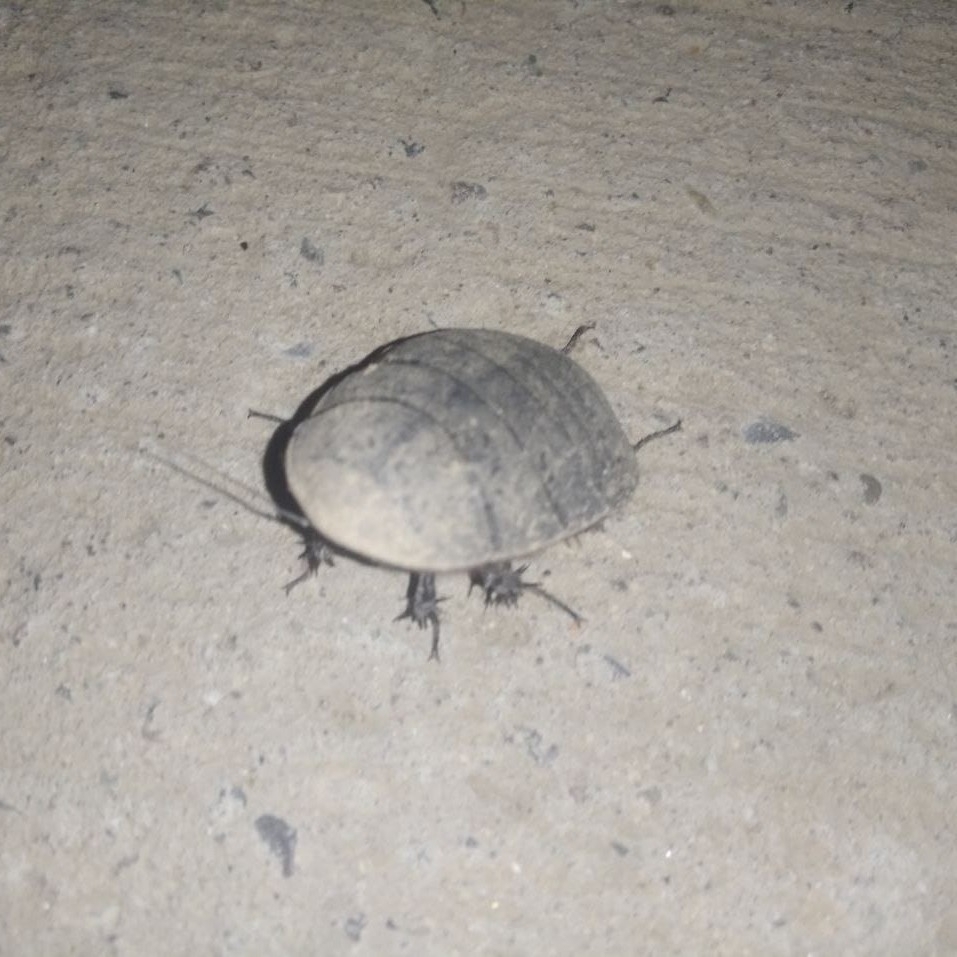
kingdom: Animalia
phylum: Arthropoda
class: Insecta
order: Blattodea
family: Corydiidae
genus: Polyphaga
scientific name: Polyphaga saussurei
